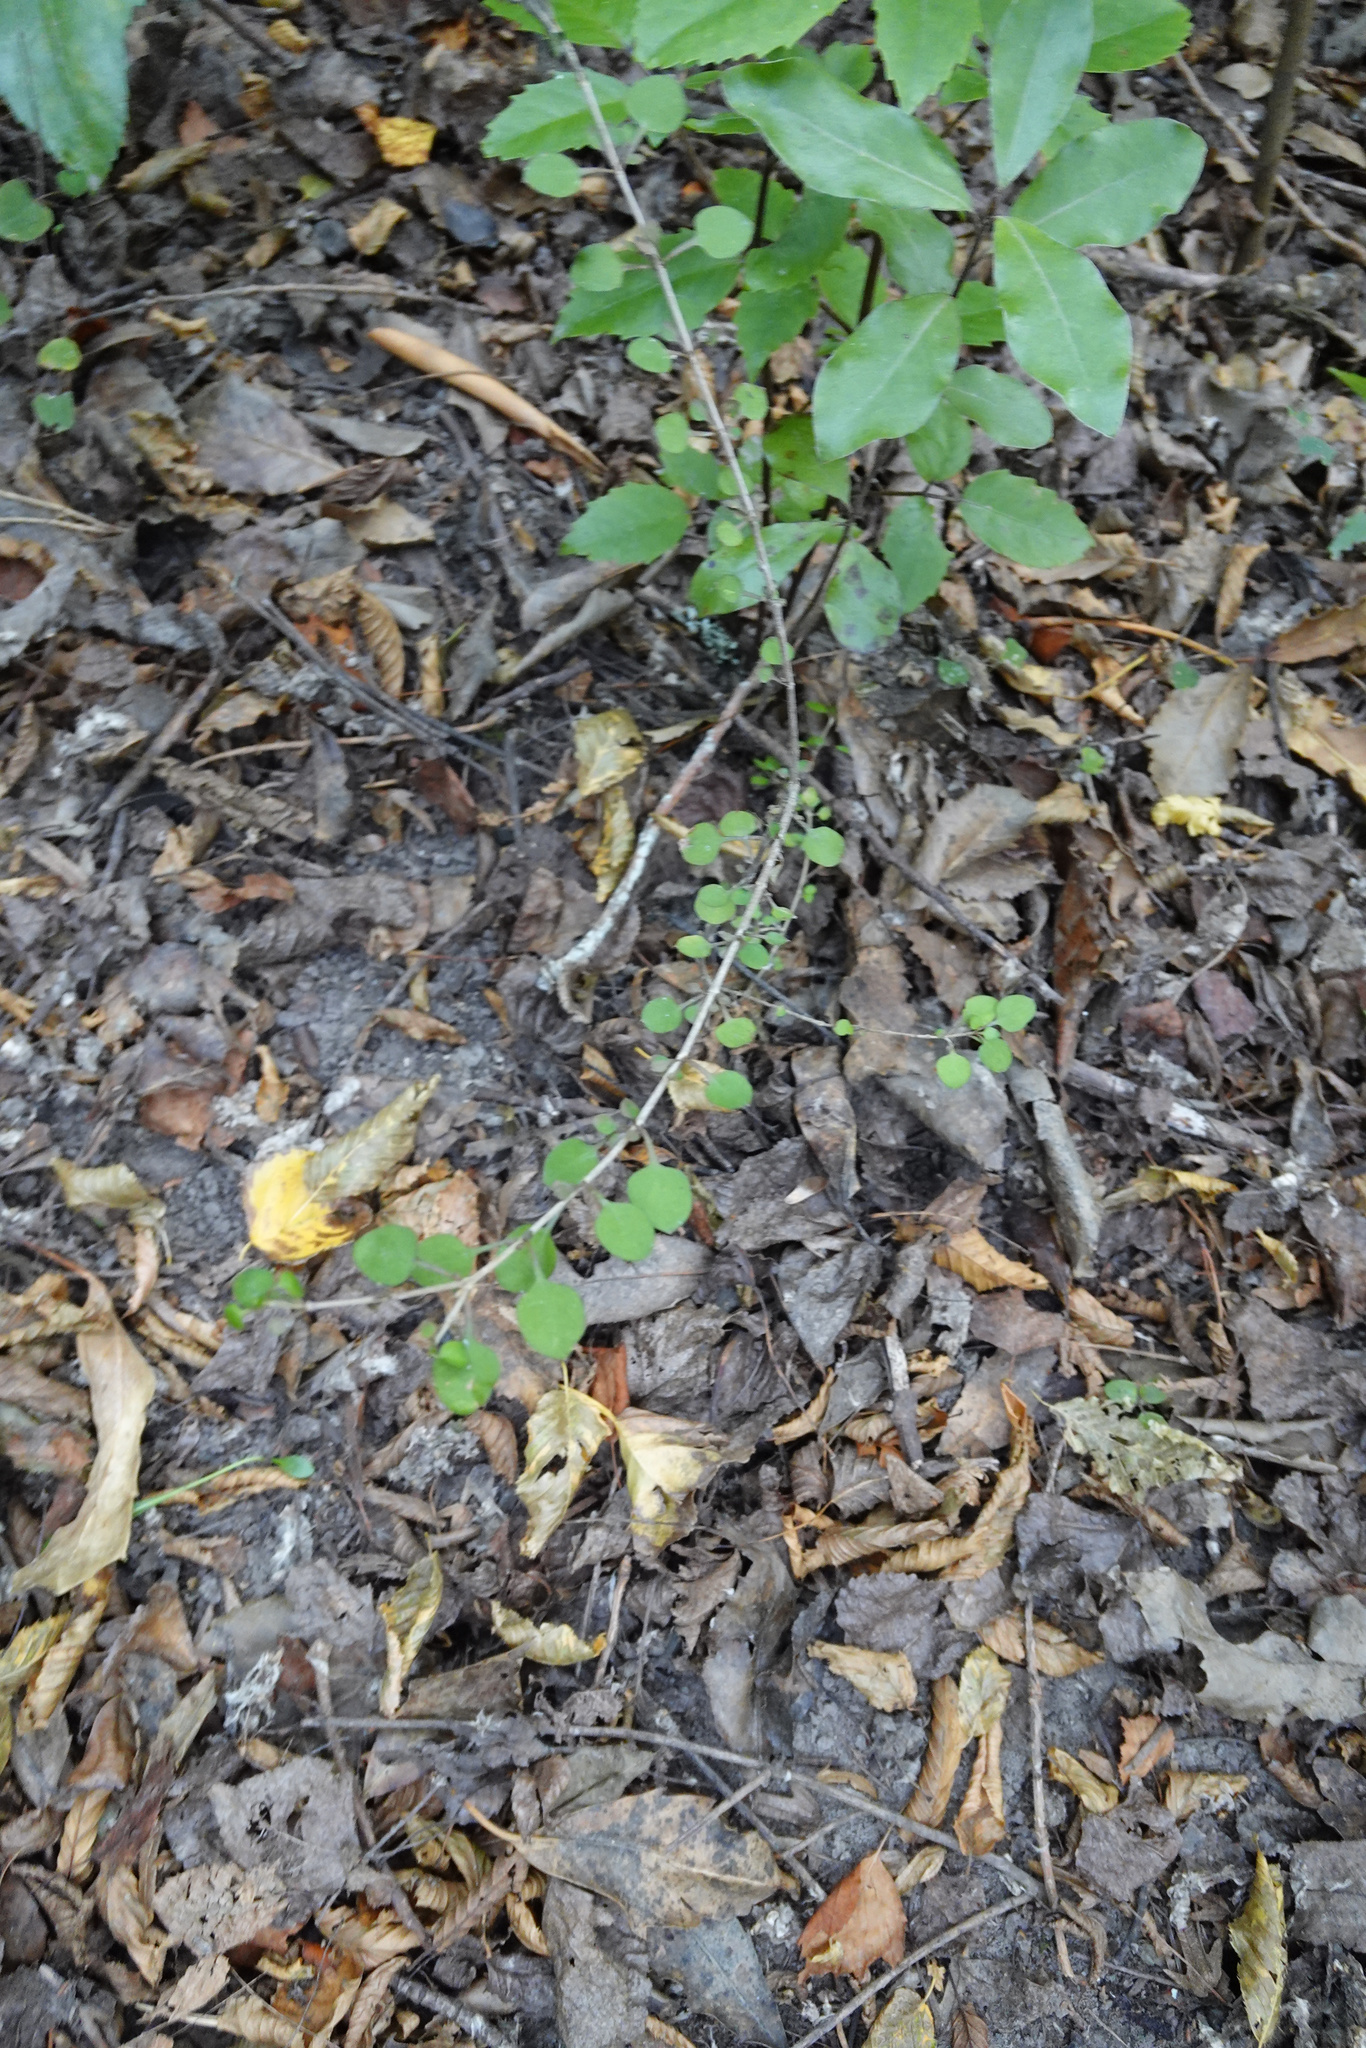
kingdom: Plantae
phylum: Tracheophyta
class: Magnoliopsida
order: Gentianales
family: Rubiaceae
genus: Coprosma
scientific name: Coprosma rotundifolia
